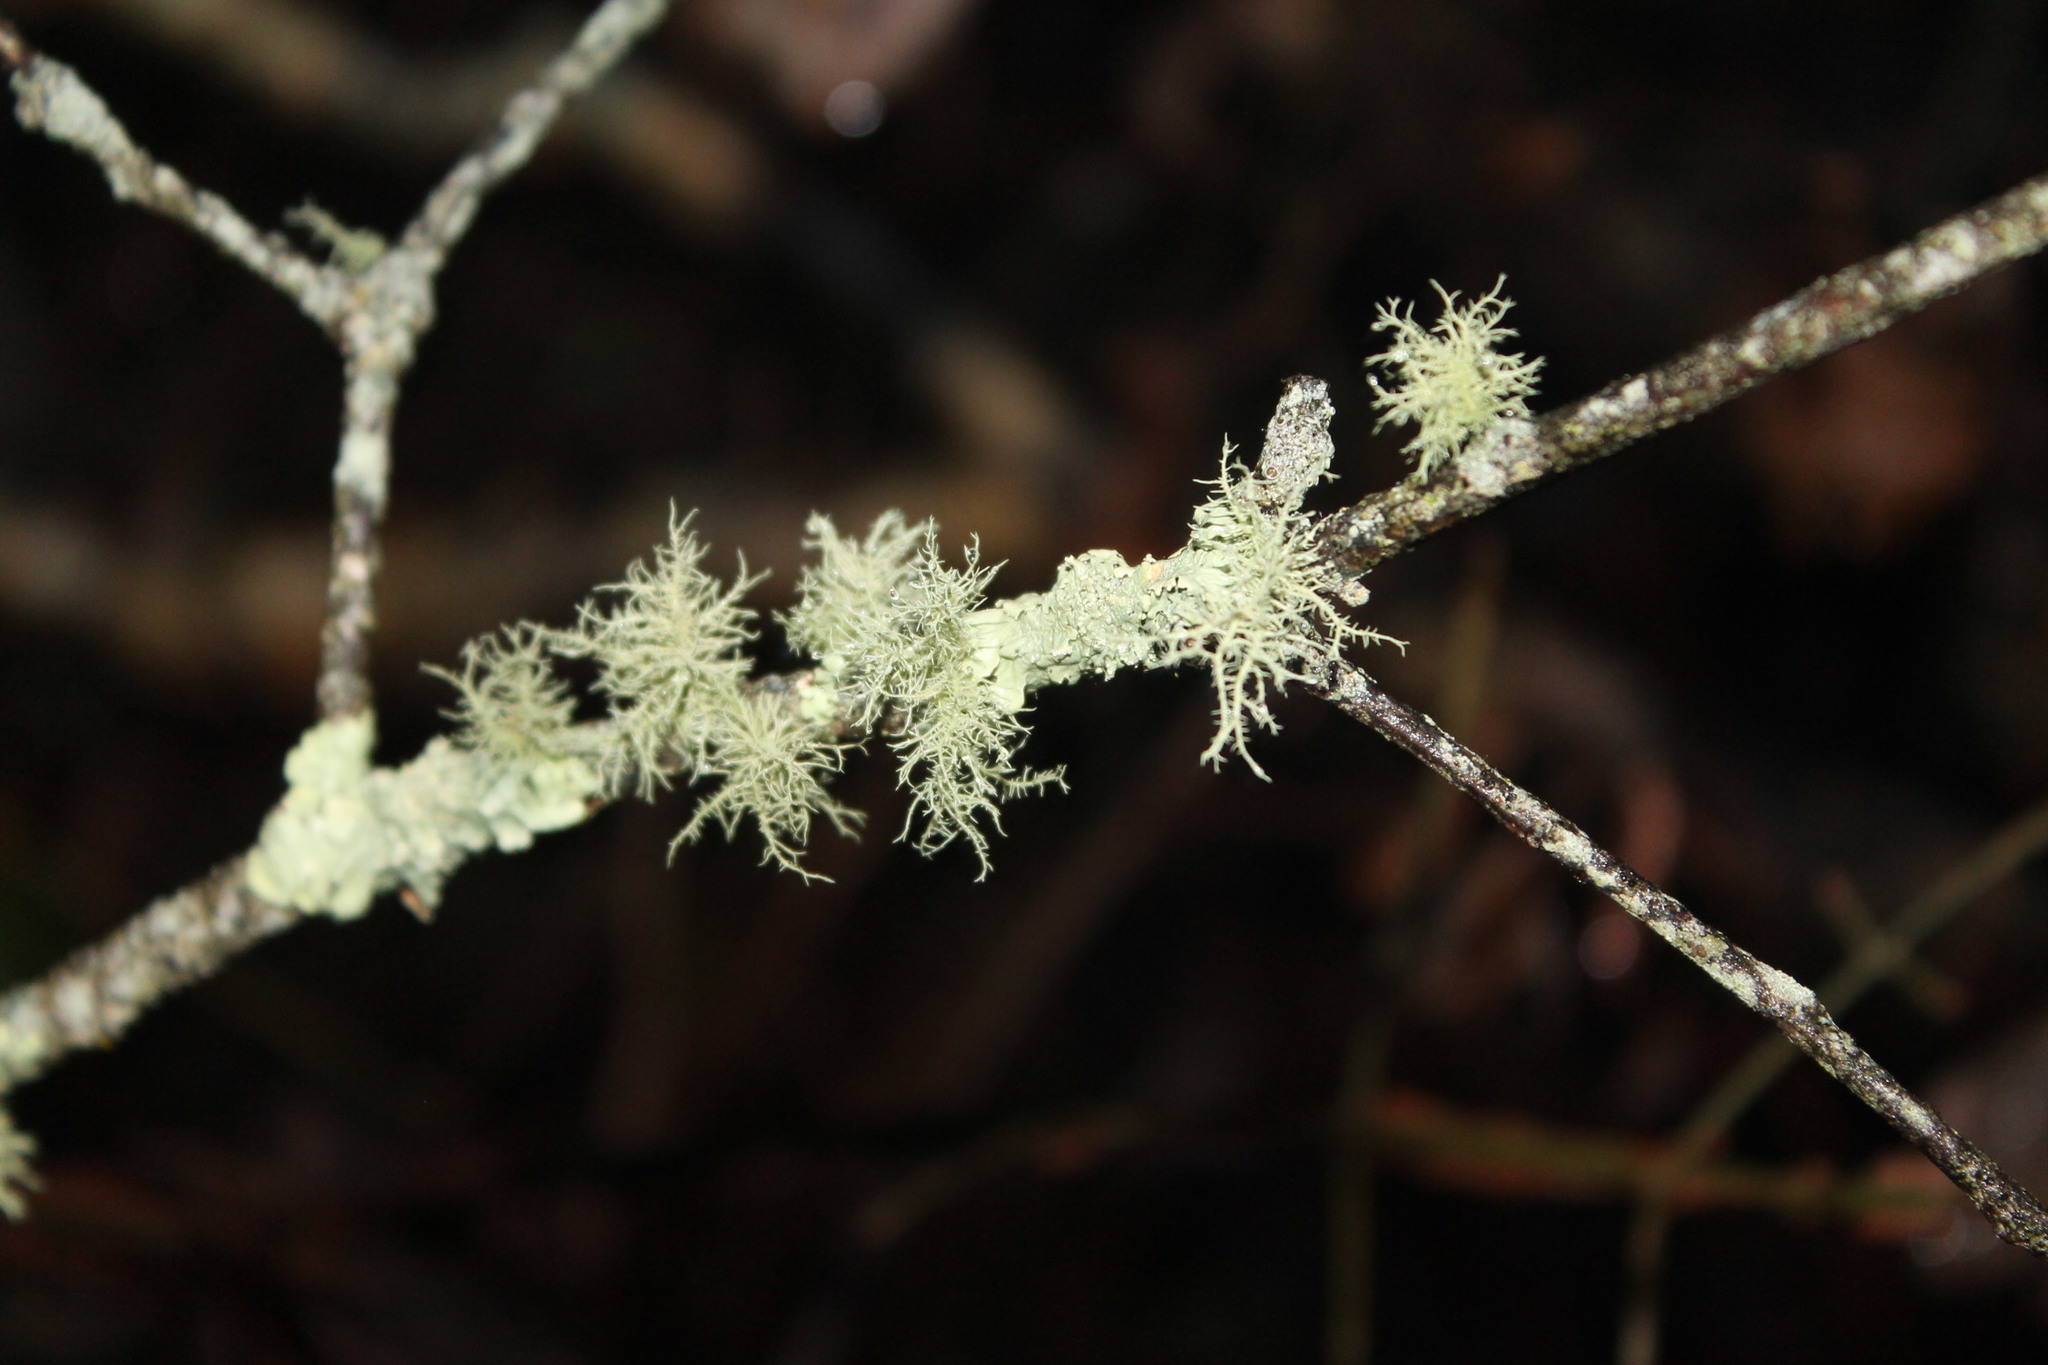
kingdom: Fungi
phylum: Ascomycota
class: Lecanoromycetes
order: Lecanorales
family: Parmeliaceae
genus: Usnea
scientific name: Usnea hirta
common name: Bristly beard lichen
